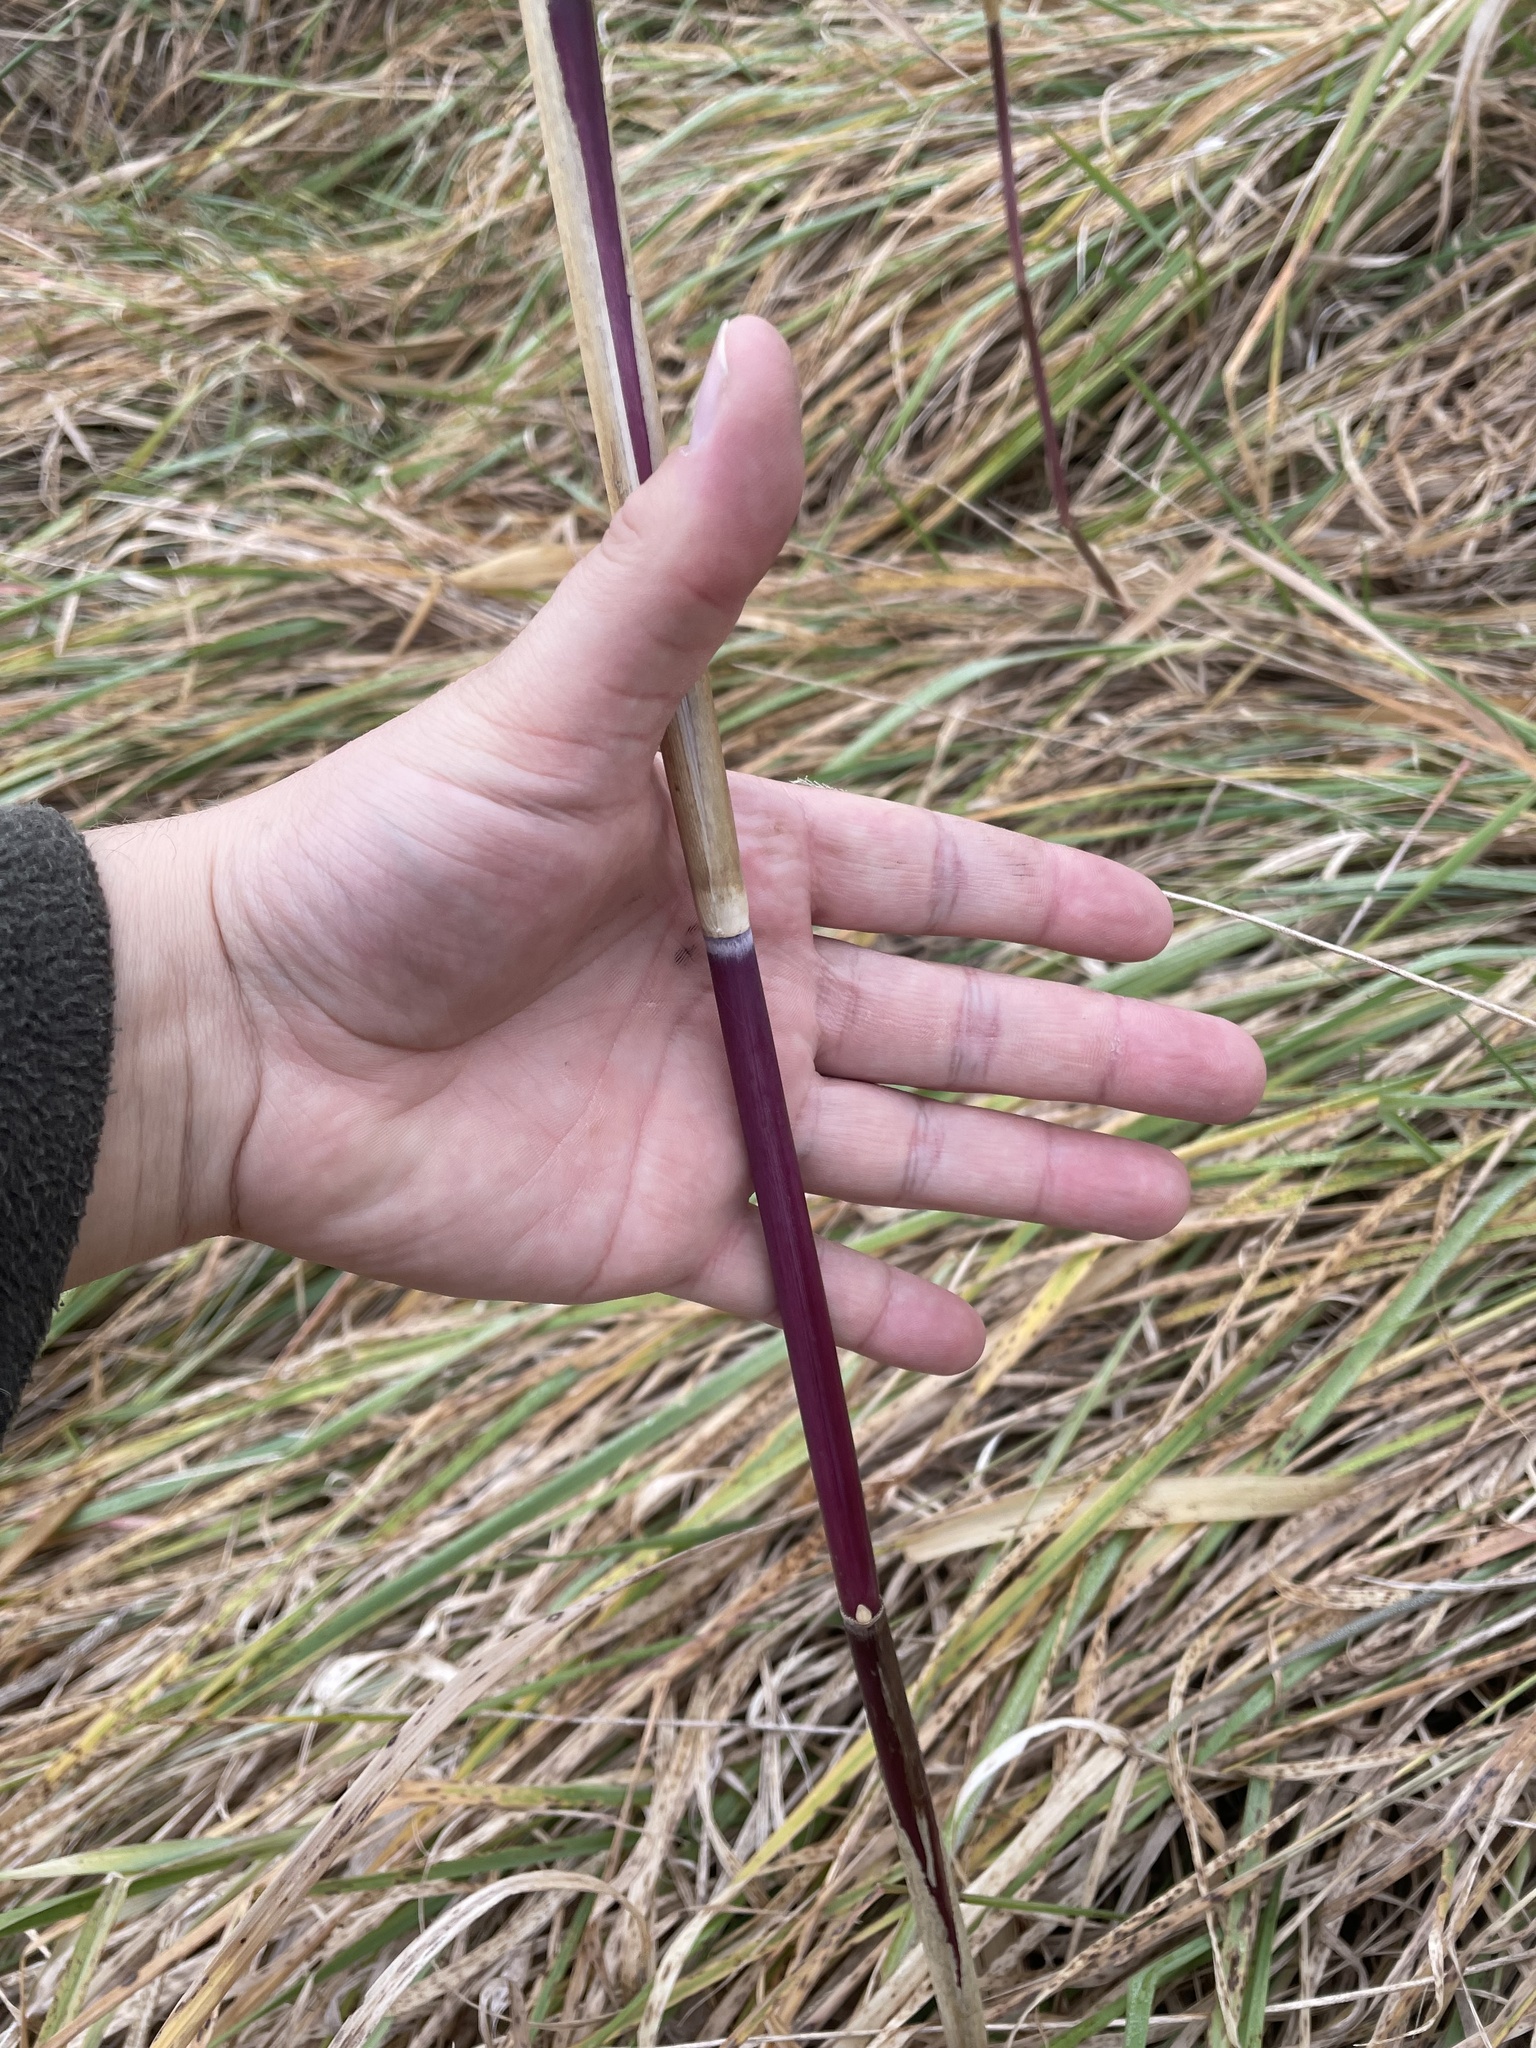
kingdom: Plantae
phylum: Tracheophyta
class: Liliopsida
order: Poales
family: Poaceae
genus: Phragmites
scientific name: Phragmites australis
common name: Common reed
